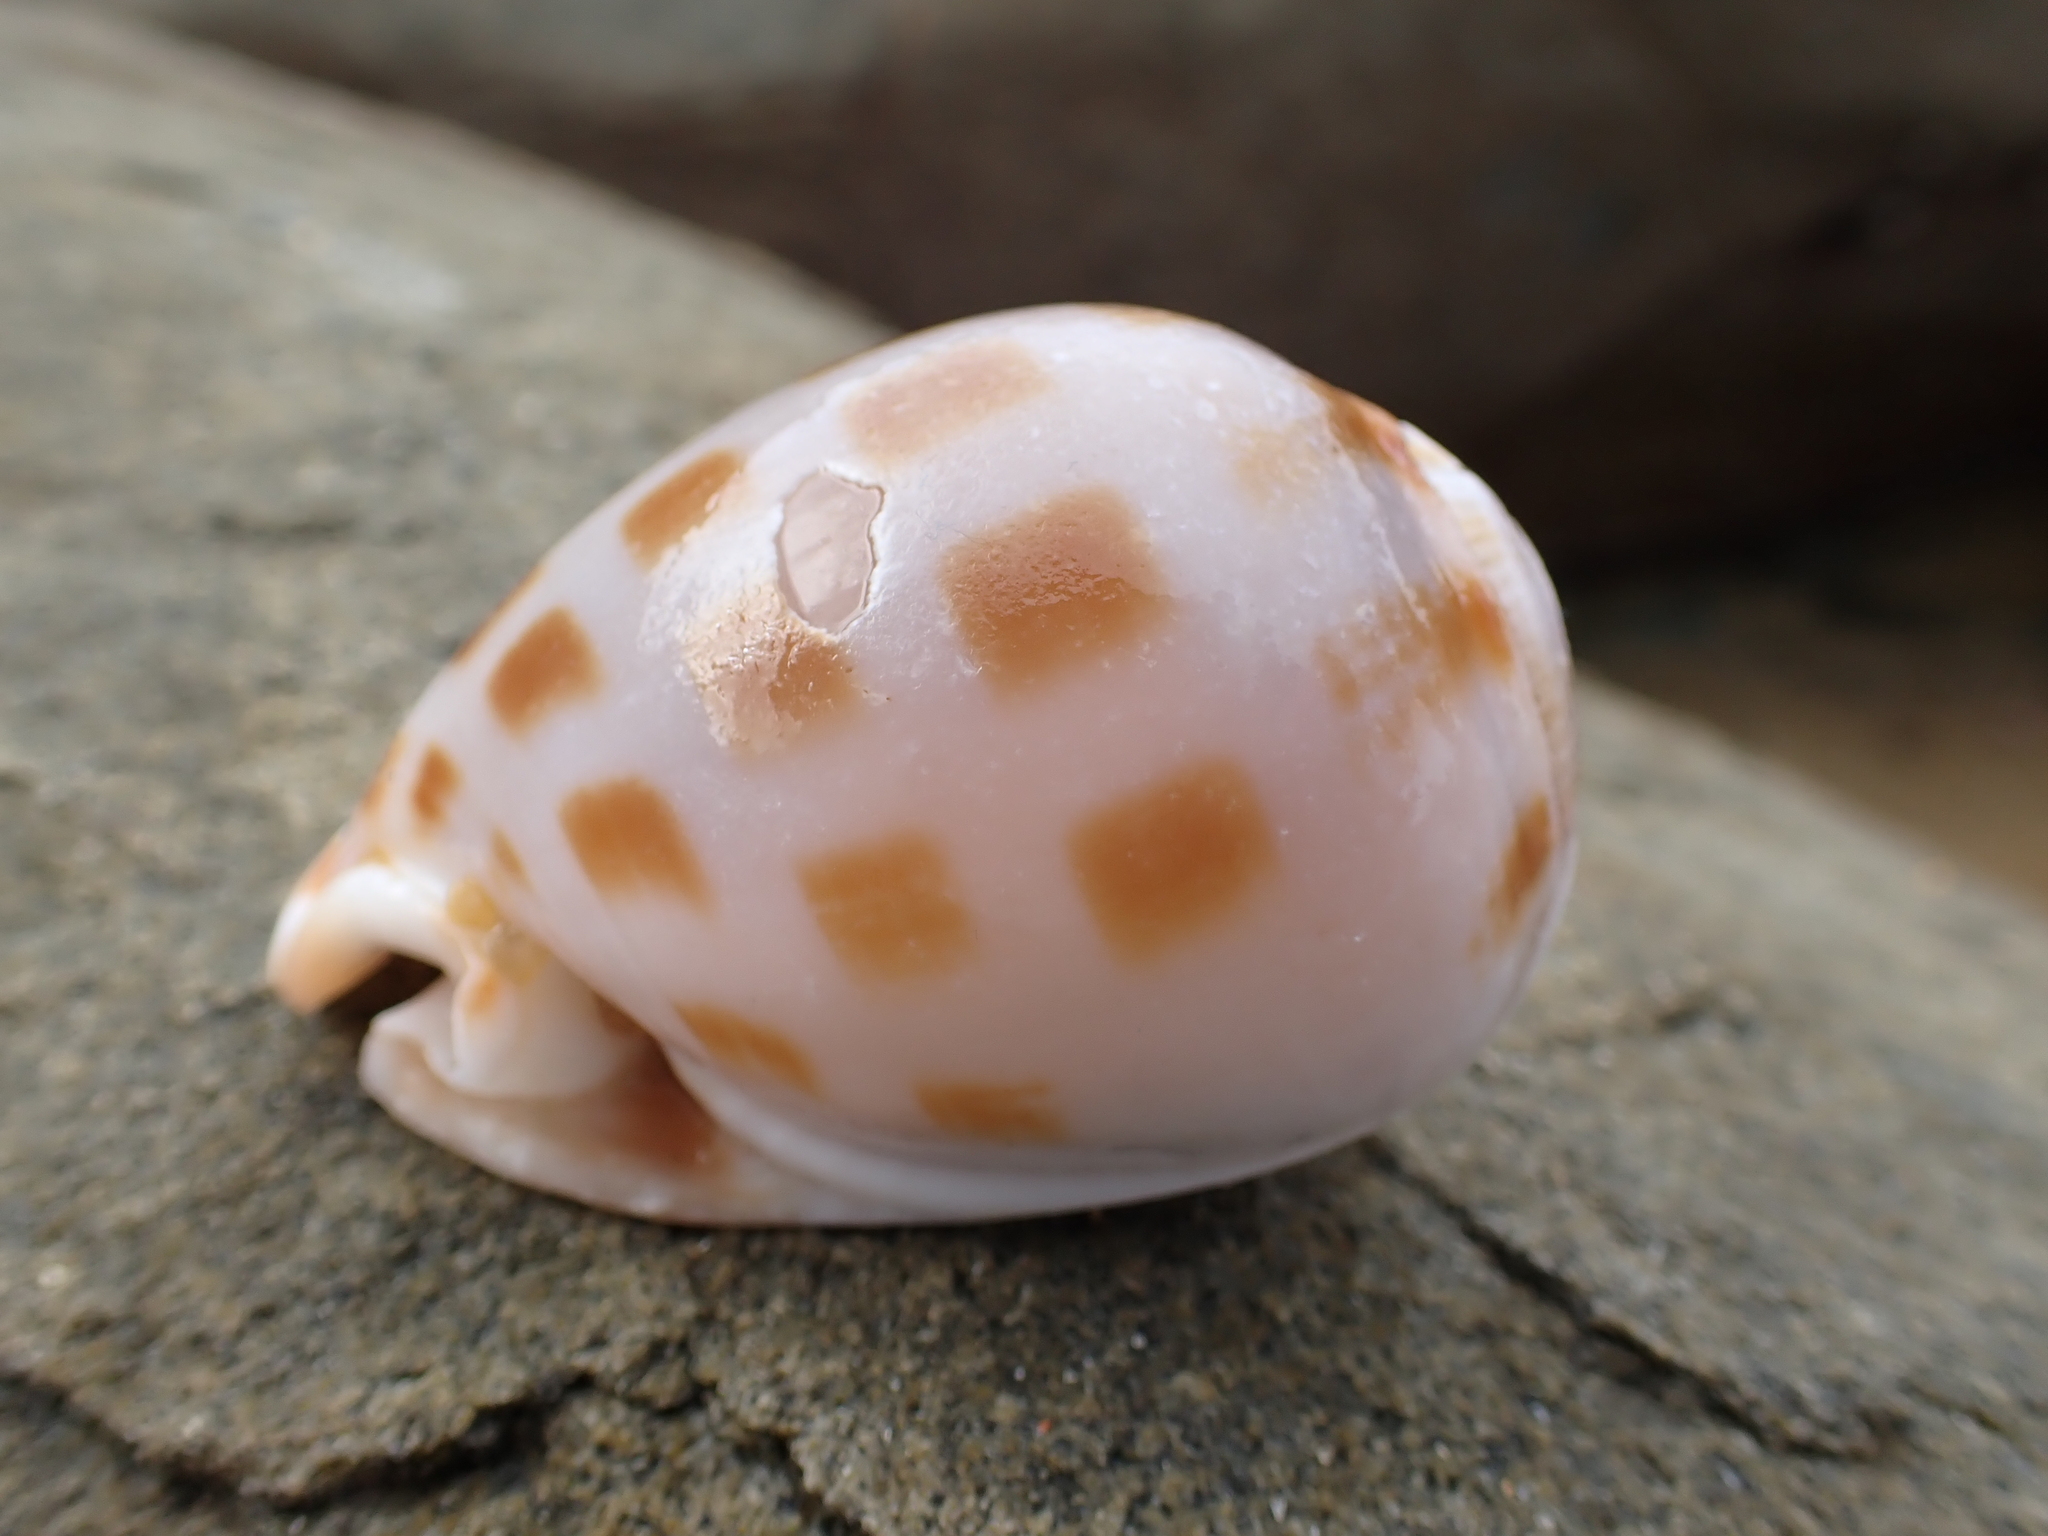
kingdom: Animalia
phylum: Mollusca
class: Gastropoda
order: Littorinimorpha
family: Cassidae
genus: Phalium
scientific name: Phalium areola
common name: Checkered bonnet
